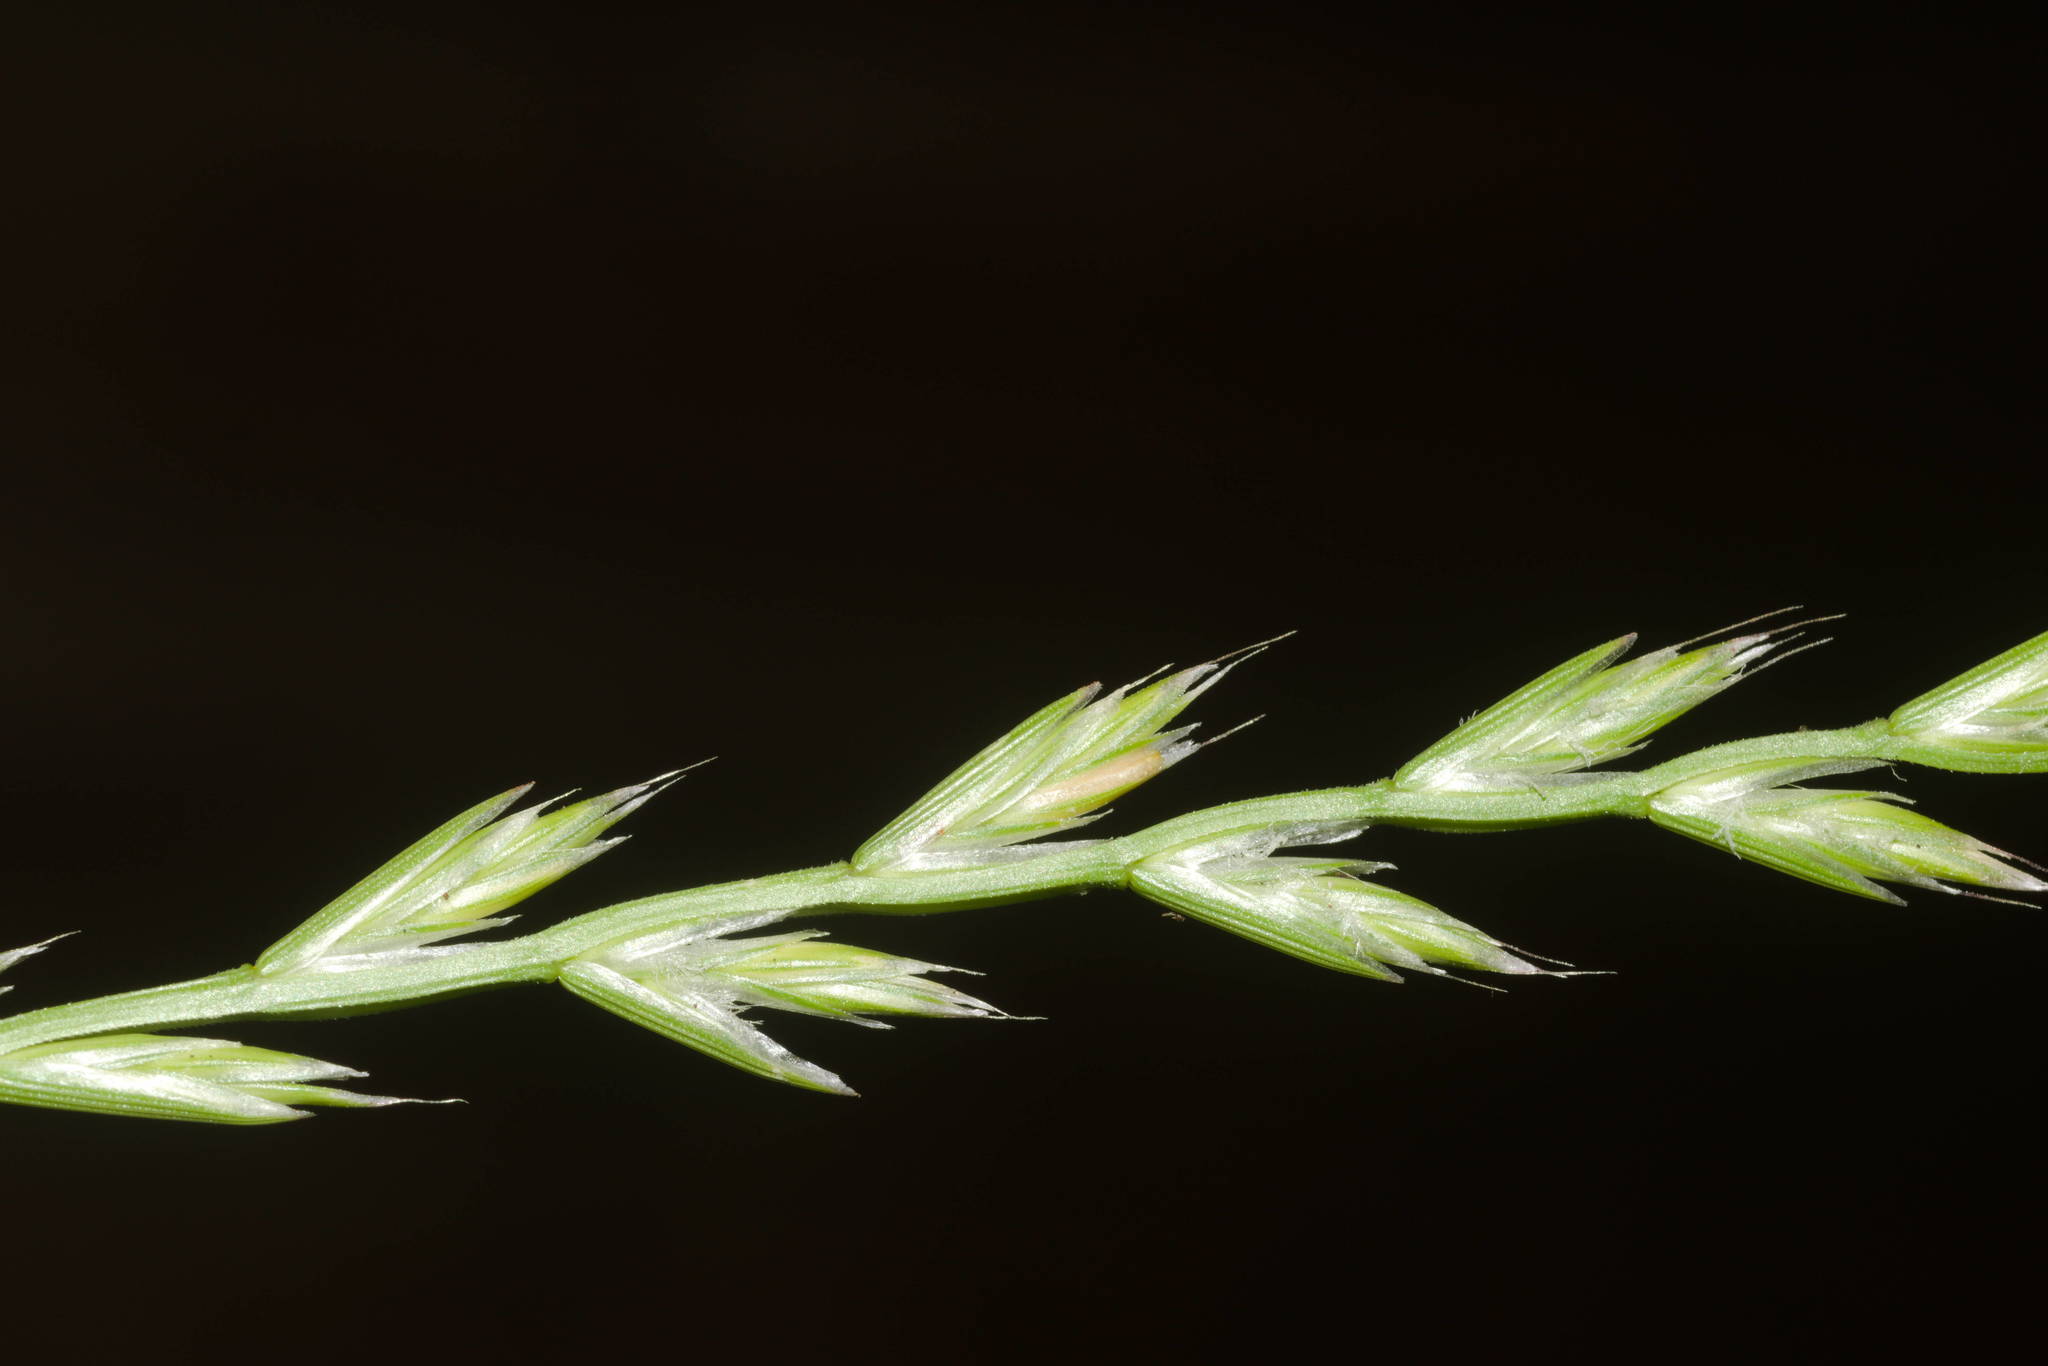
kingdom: Plantae
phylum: Tracheophyta
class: Liliopsida
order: Poales
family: Poaceae
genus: Lolium
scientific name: Lolium multiflorum
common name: Annual ryegrass
